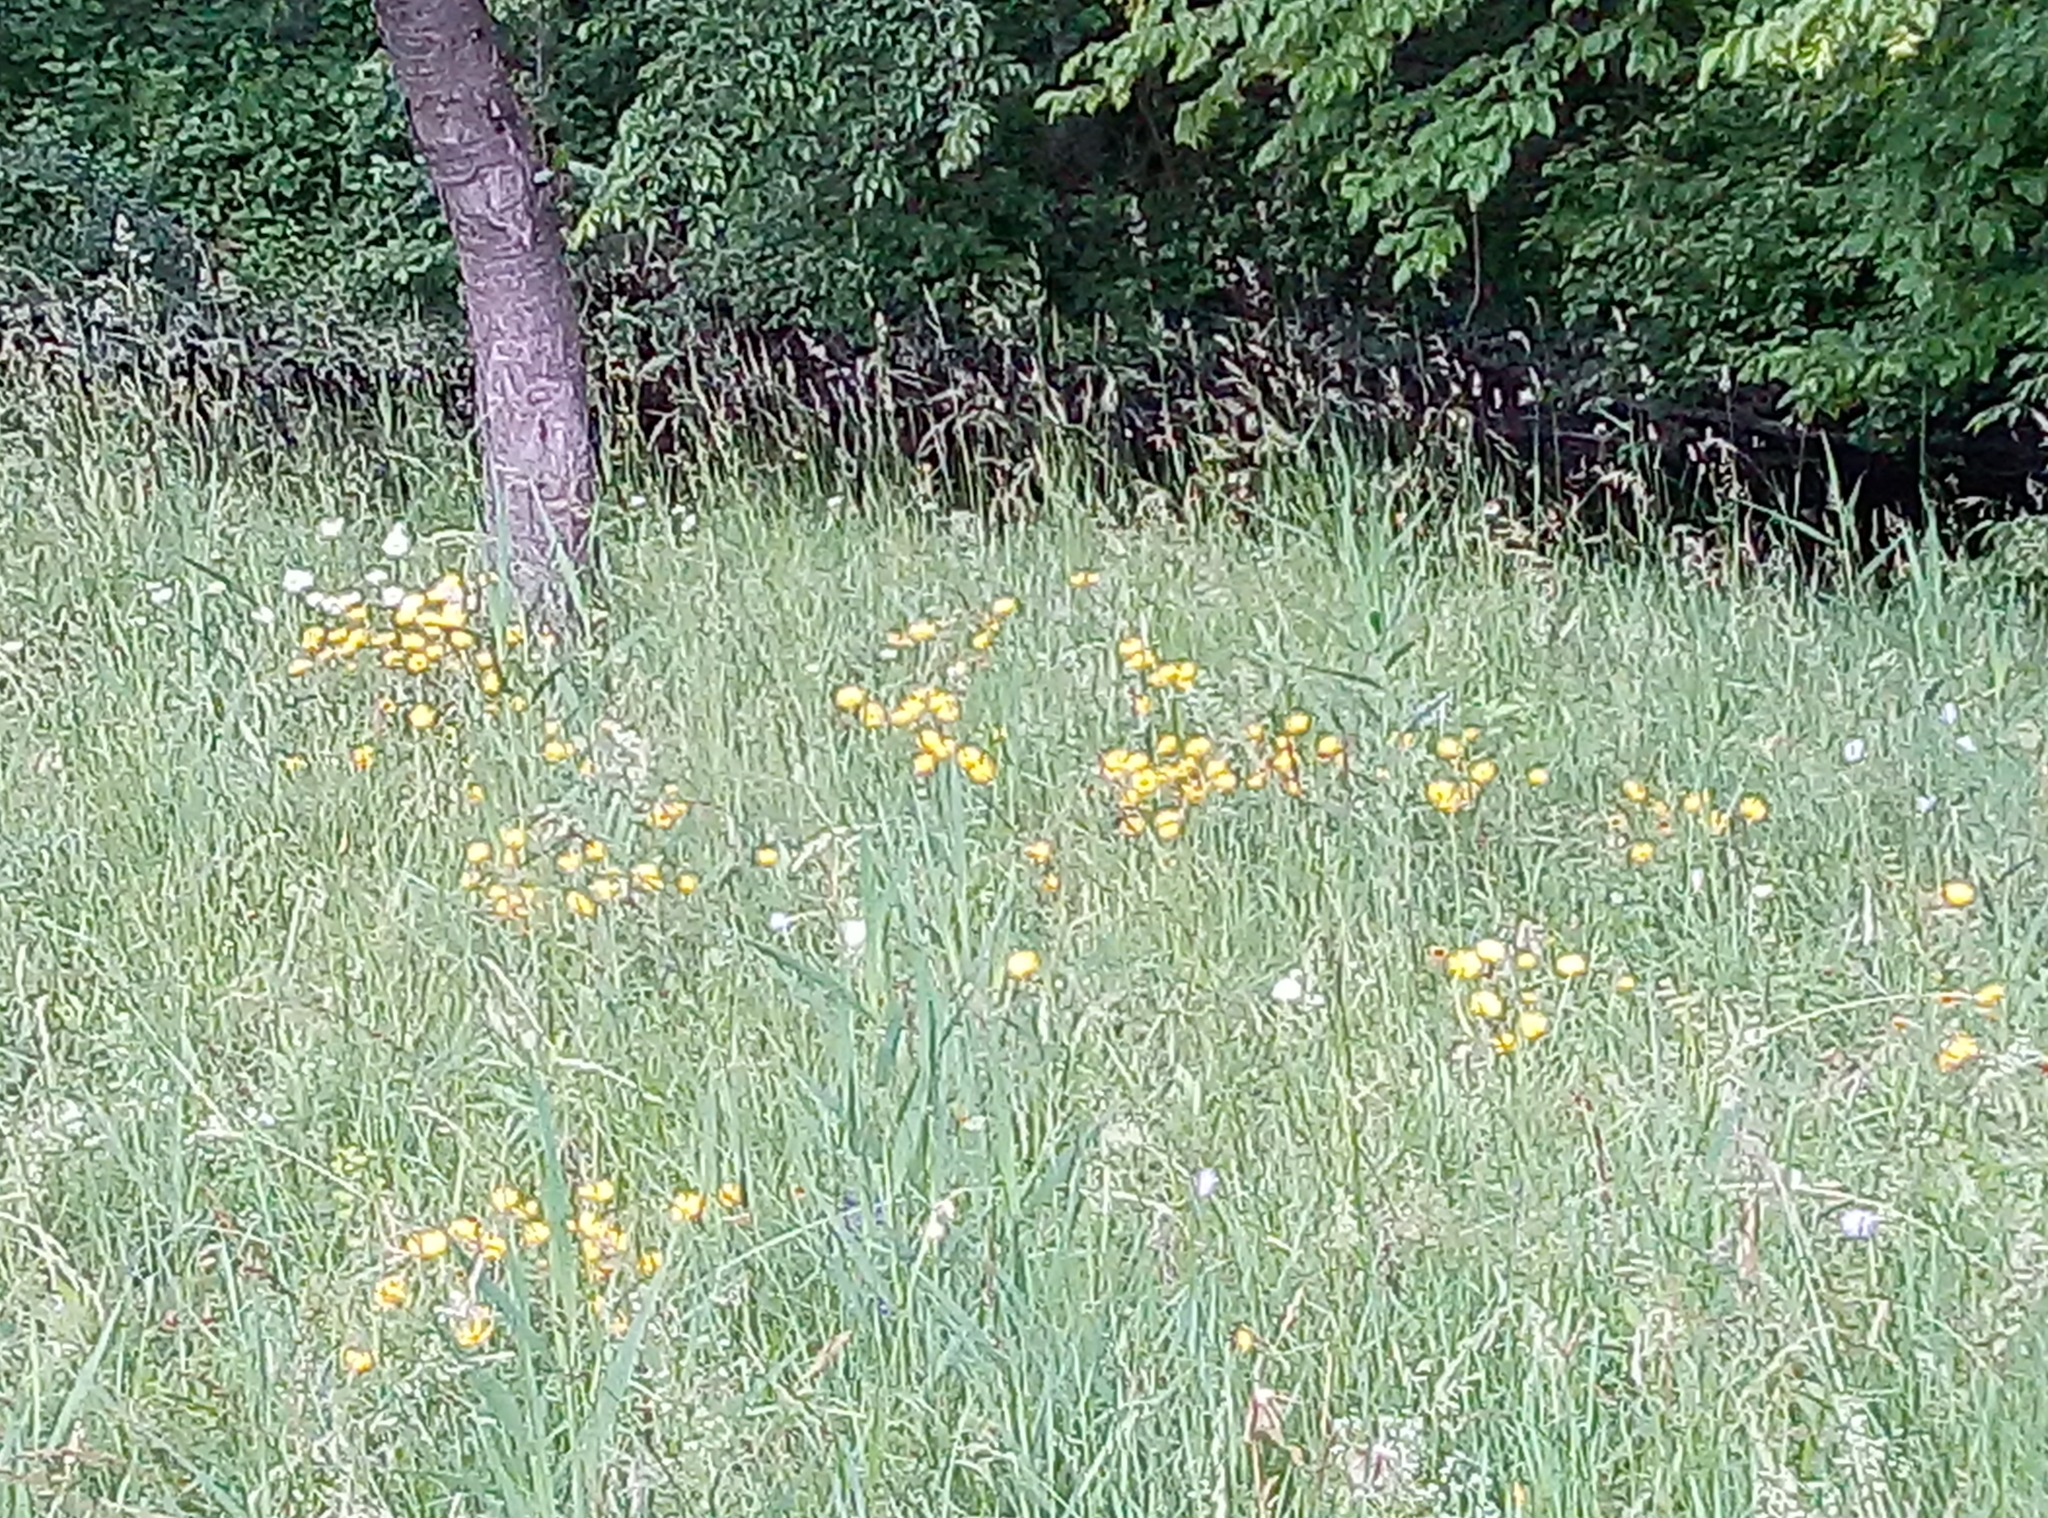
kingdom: Plantae
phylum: Tracheophyta
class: Magnoliopsida
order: Asterales
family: Asteraceae
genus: Buphthalmum
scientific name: Buphthalmum salicifolium
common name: Willow-leaved yellow-oxeye
